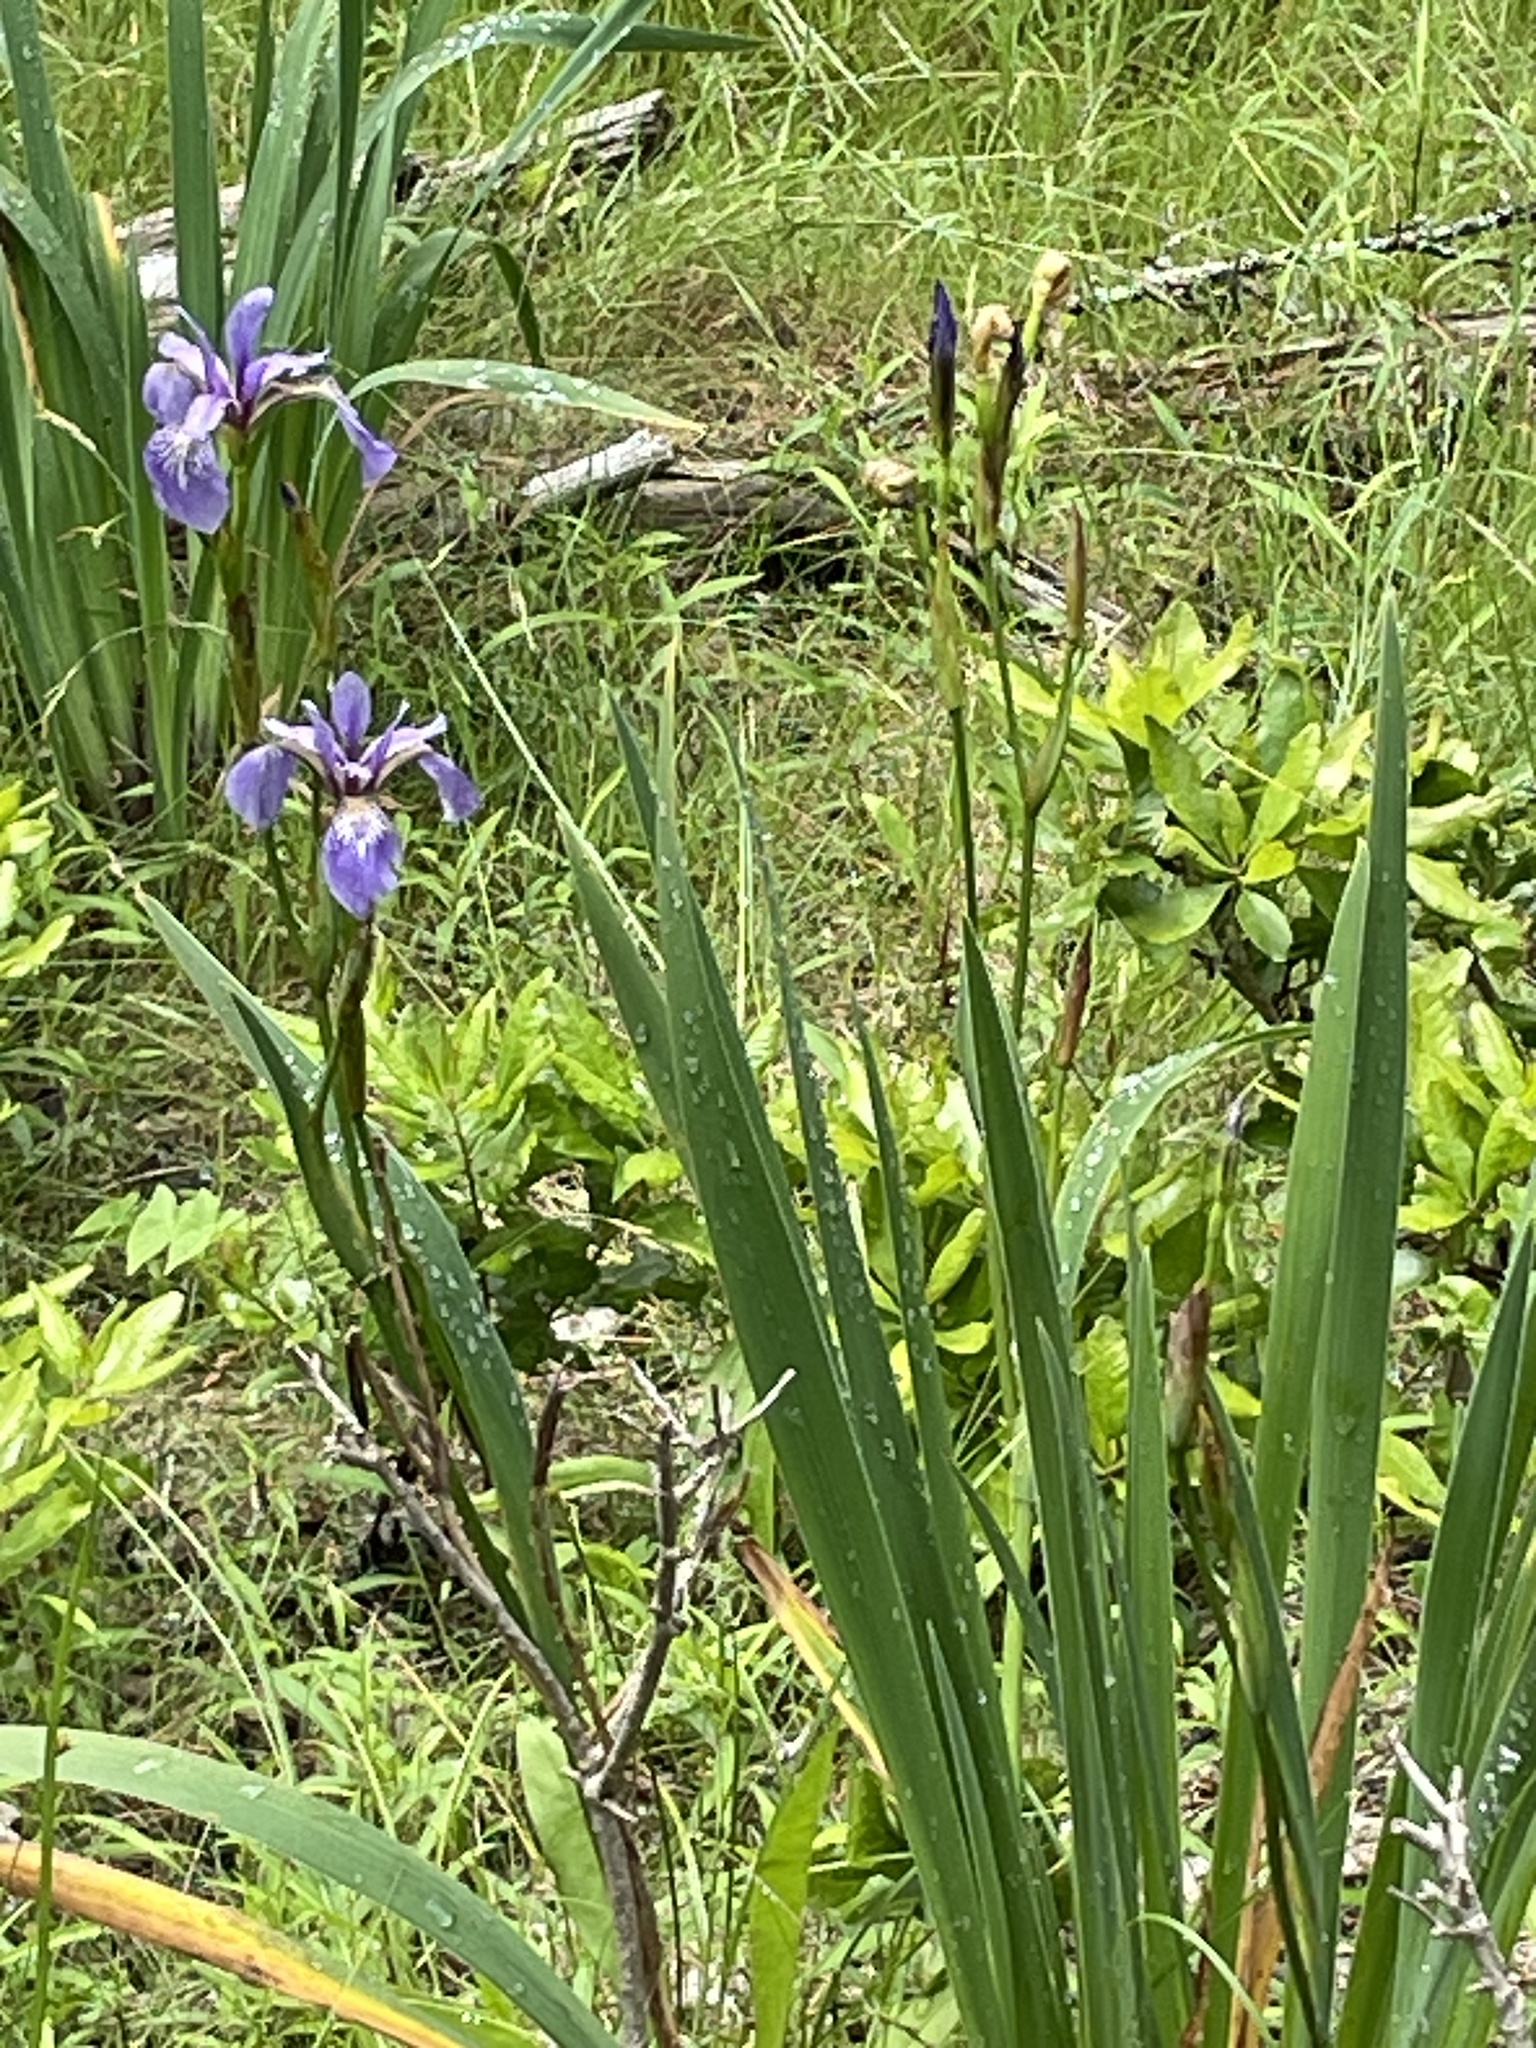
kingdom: Plantae
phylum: Tracheophyta
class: Liliopsida
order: Asparagales
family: Iridaceae
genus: Iris
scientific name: Iris versicolor
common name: Purple iris
